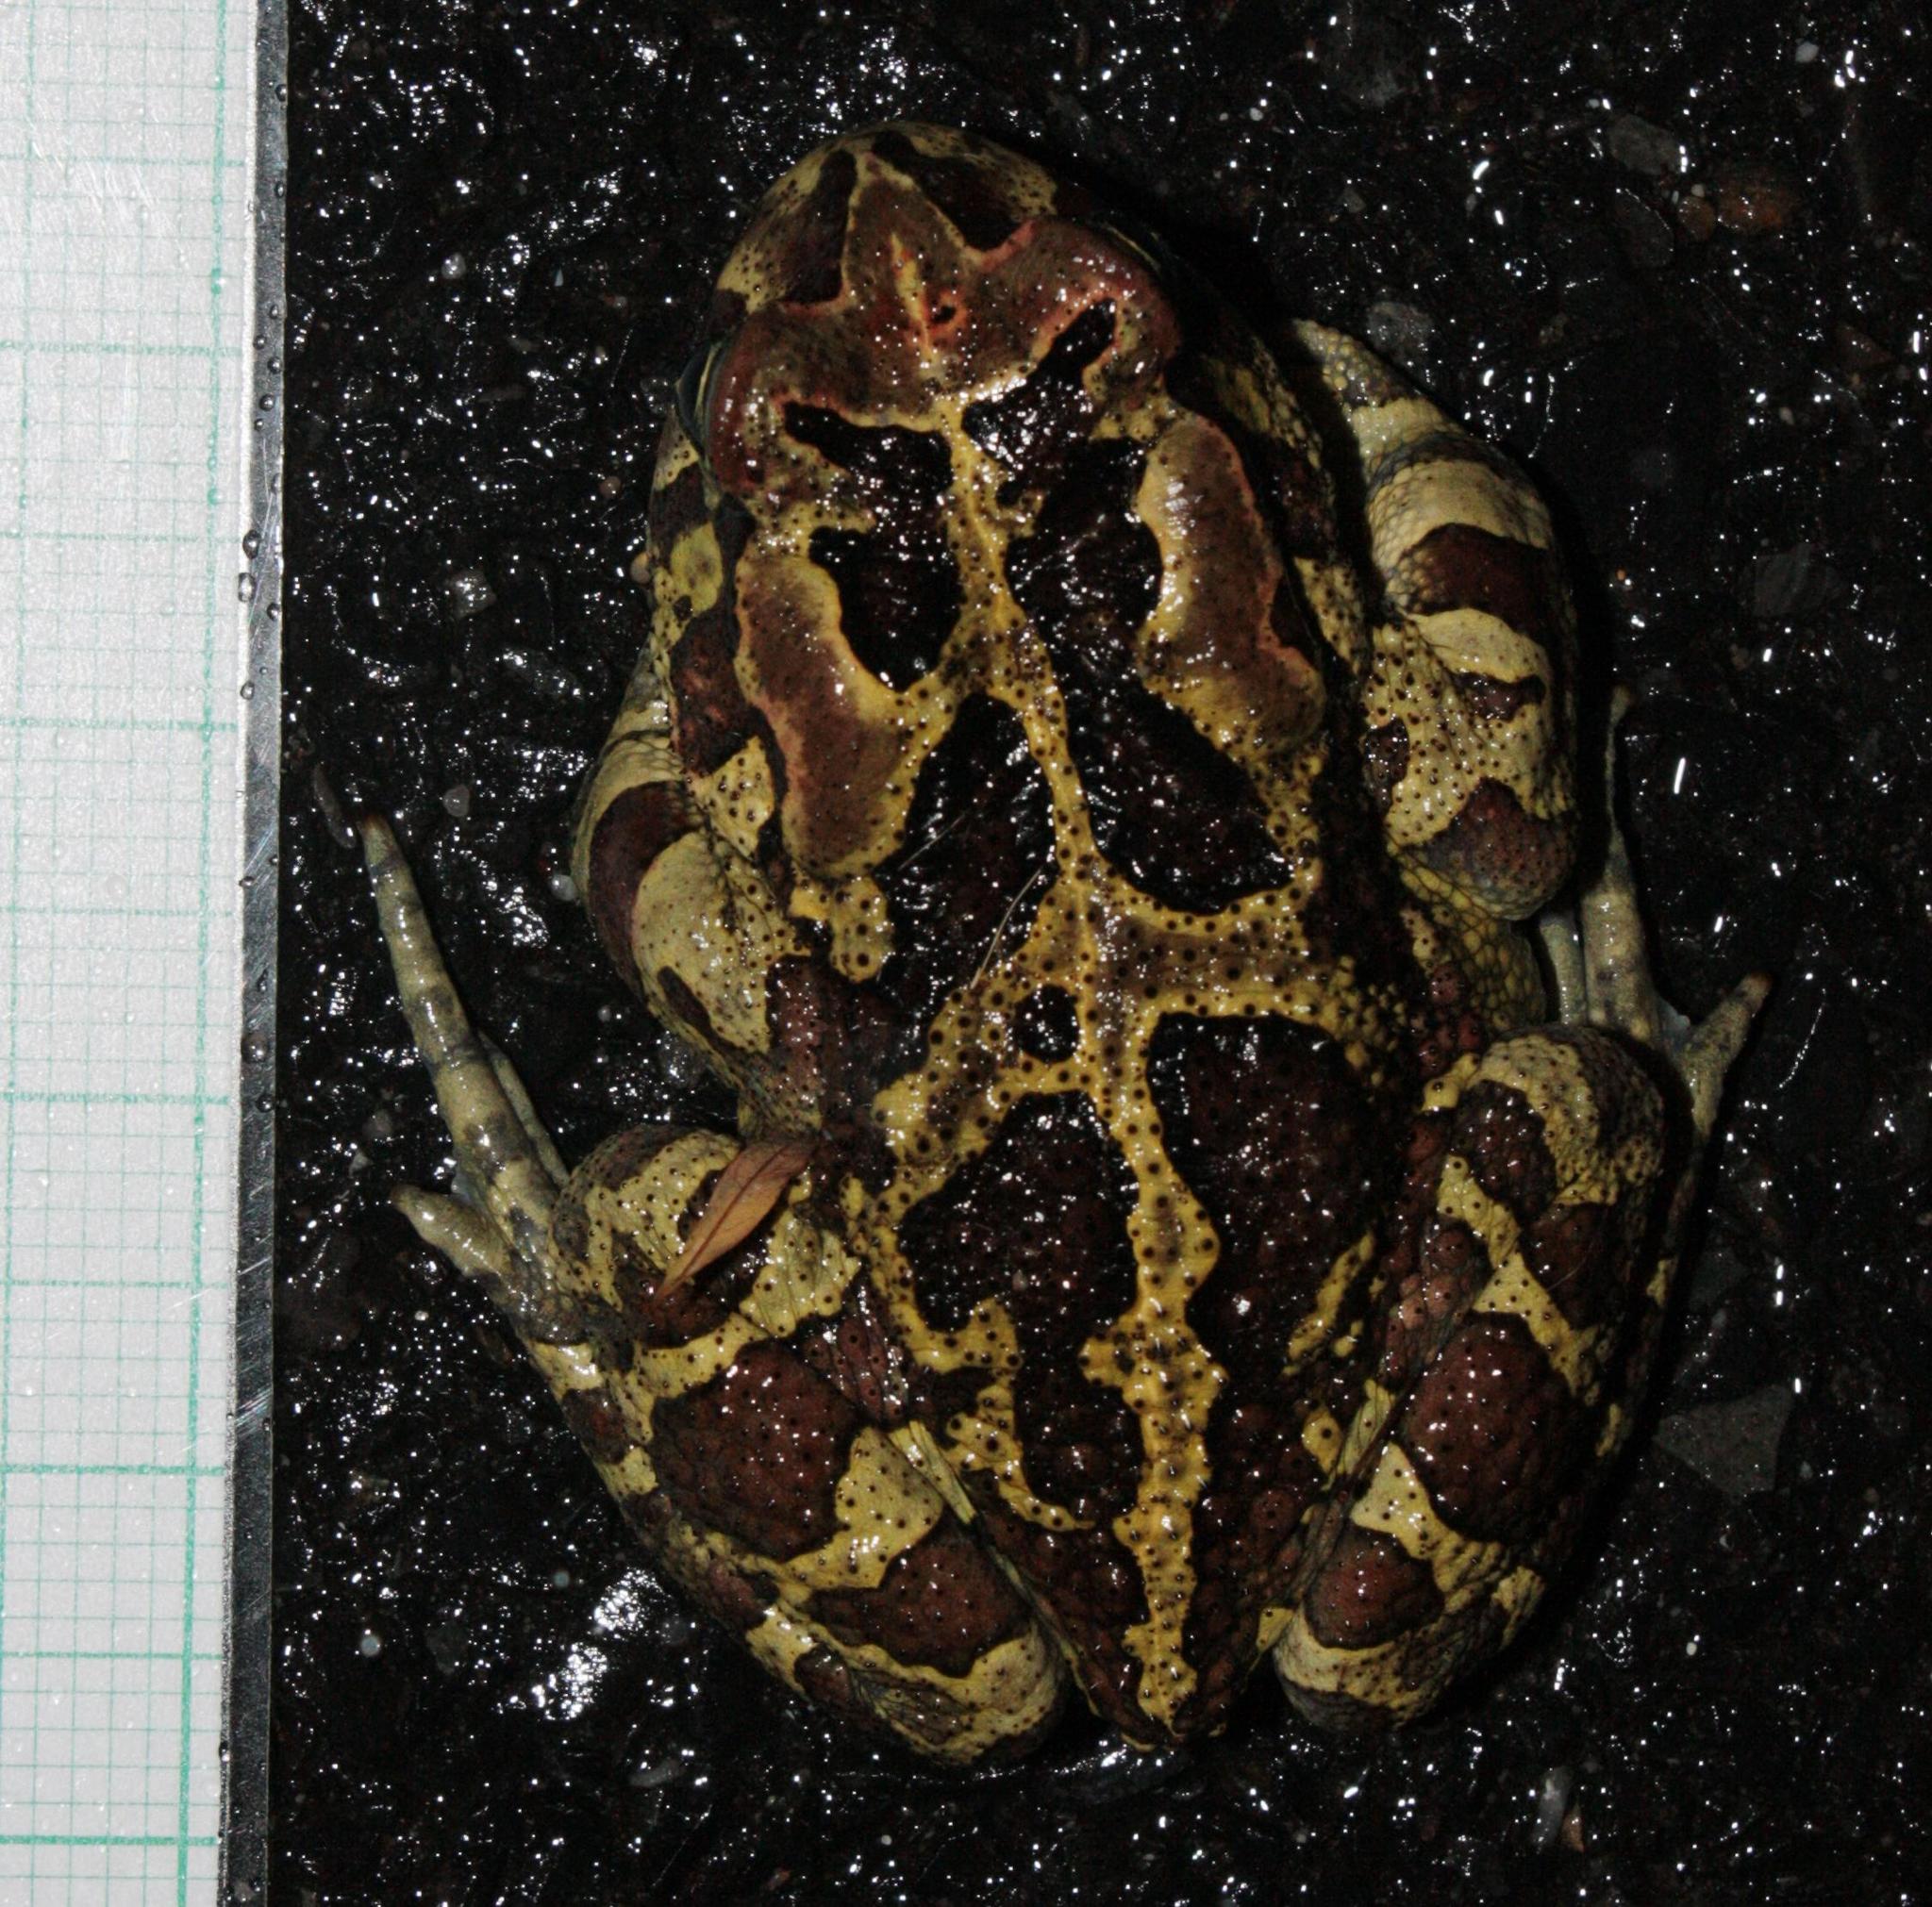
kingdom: Animalia
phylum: Chordata
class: Amphibia
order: Anura
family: Bufonidae
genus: Sclerophrys
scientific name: Sclerophrys pantherina
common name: Panther toad
